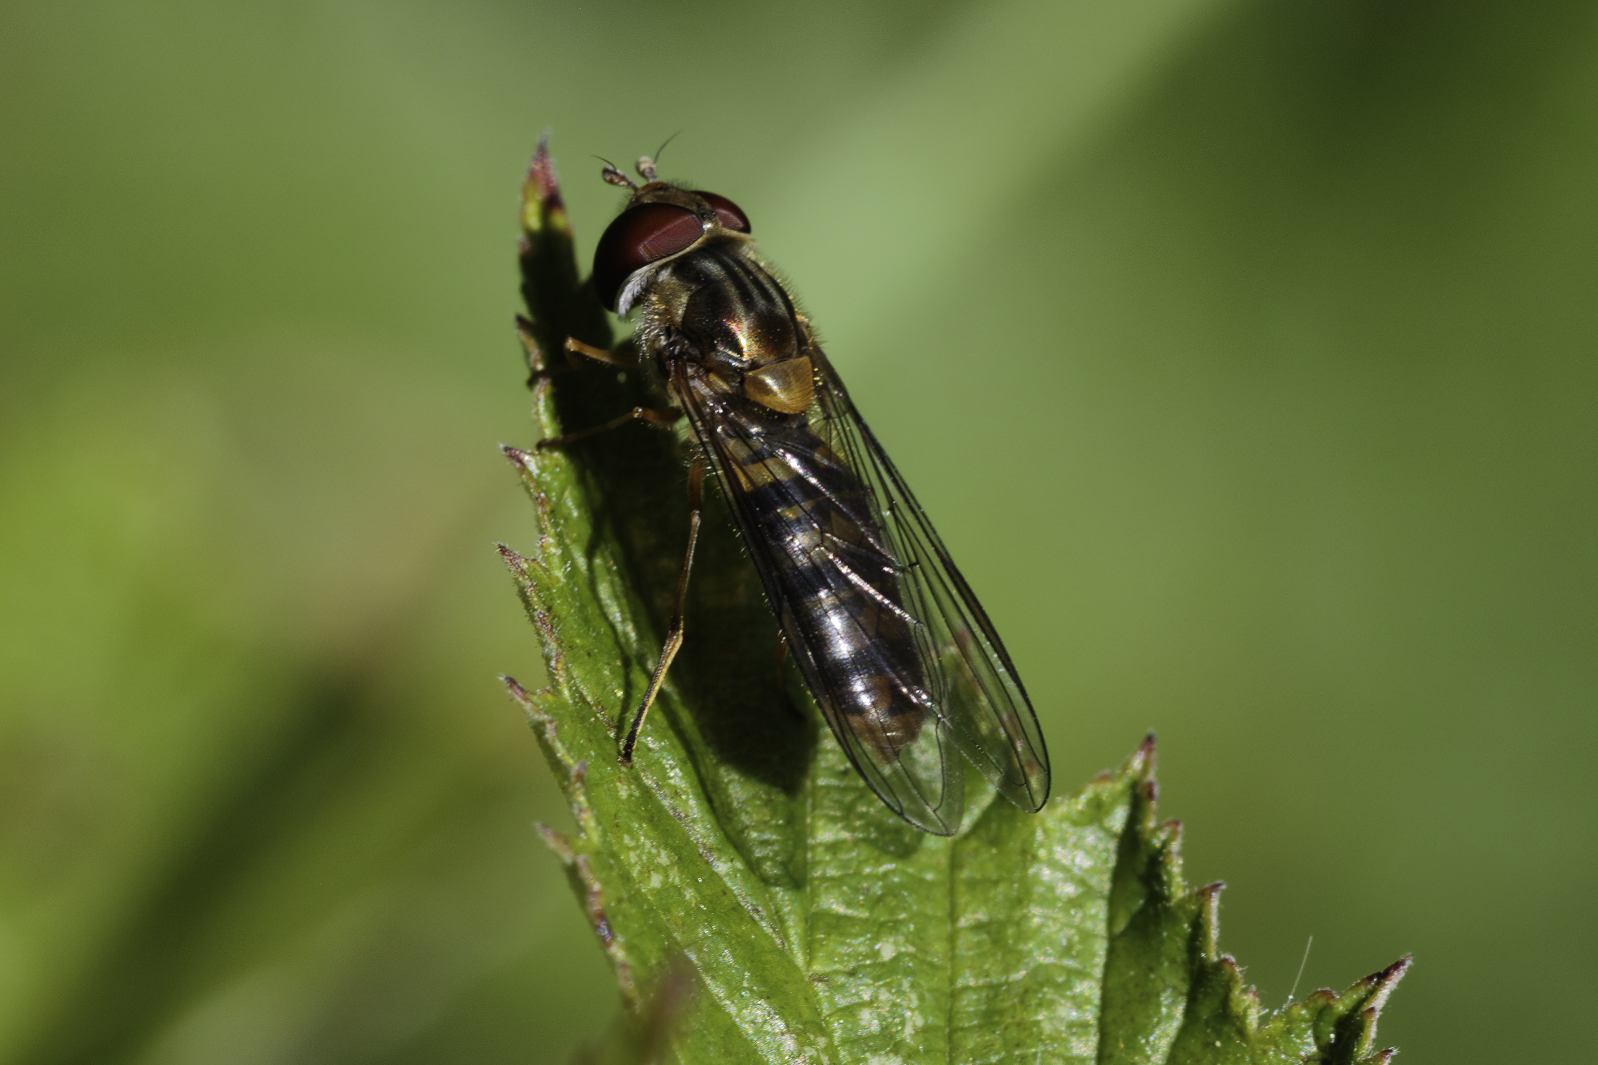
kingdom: Animalia
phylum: Arthropoda
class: Insecta
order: Diptera
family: Syrphidae
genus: Episyrphus
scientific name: Episyrphus balteatus
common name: Marmalade hoverfly
